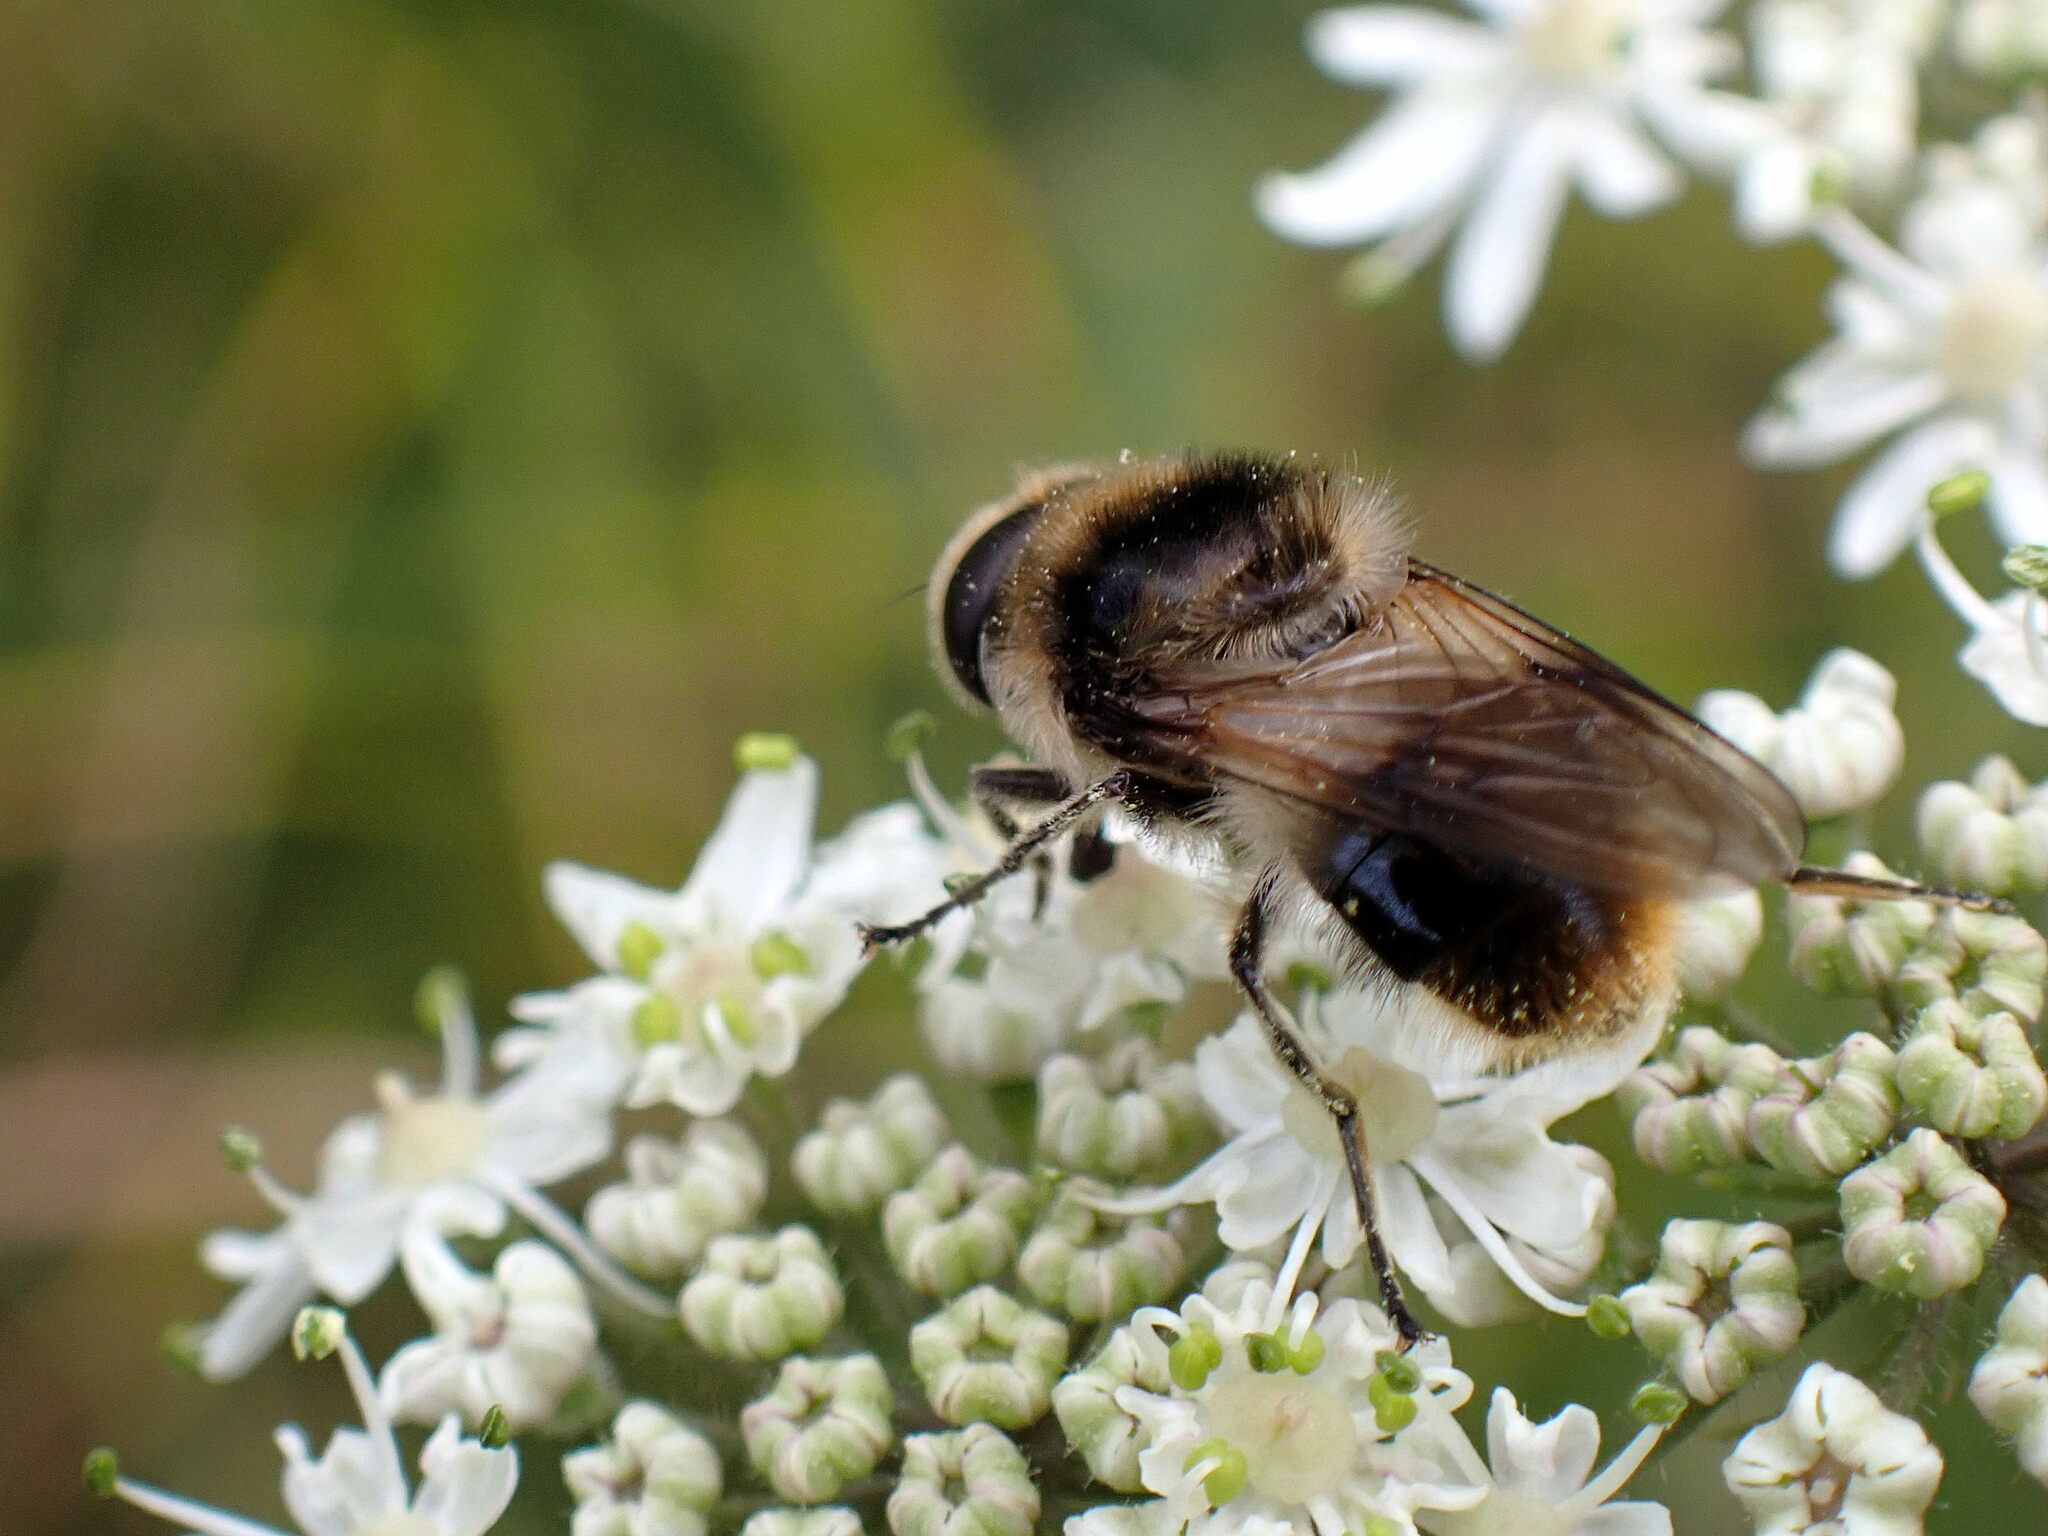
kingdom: Animalia
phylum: Arthropoda
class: Insecta
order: Diptera
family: Syrphidae
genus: Cheilosia
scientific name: Cheilosia illustrata
